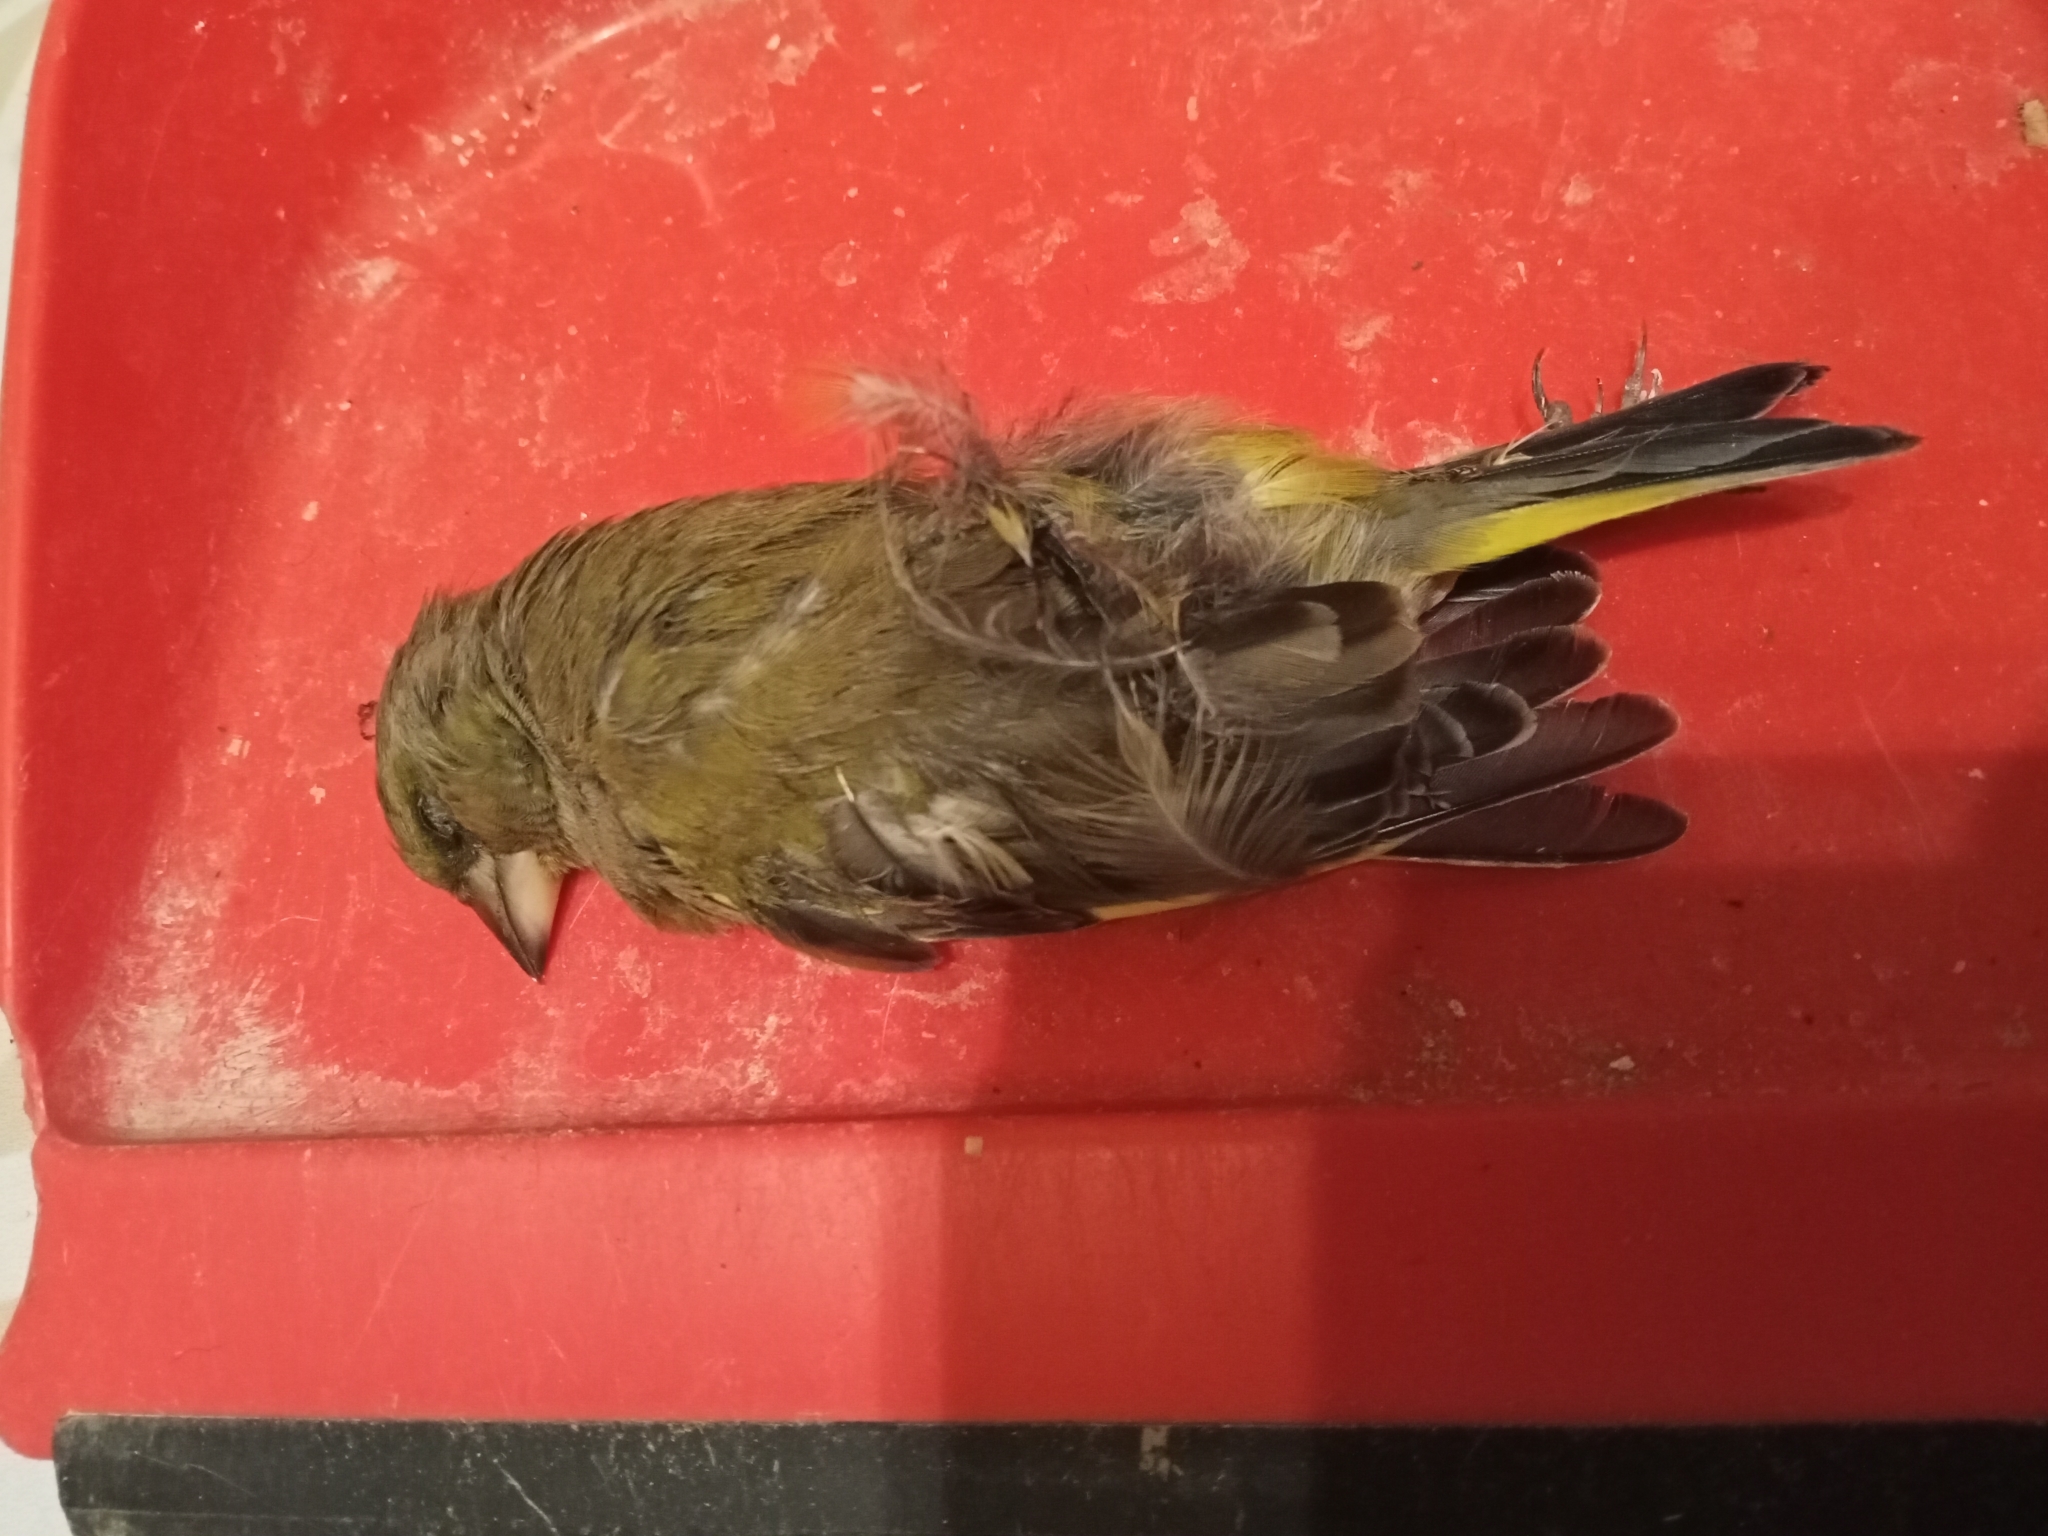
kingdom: Plantae
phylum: Tracheophyta
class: Liliopsida
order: Poales
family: Poaceae
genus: Chloris
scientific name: Chloris chloris
